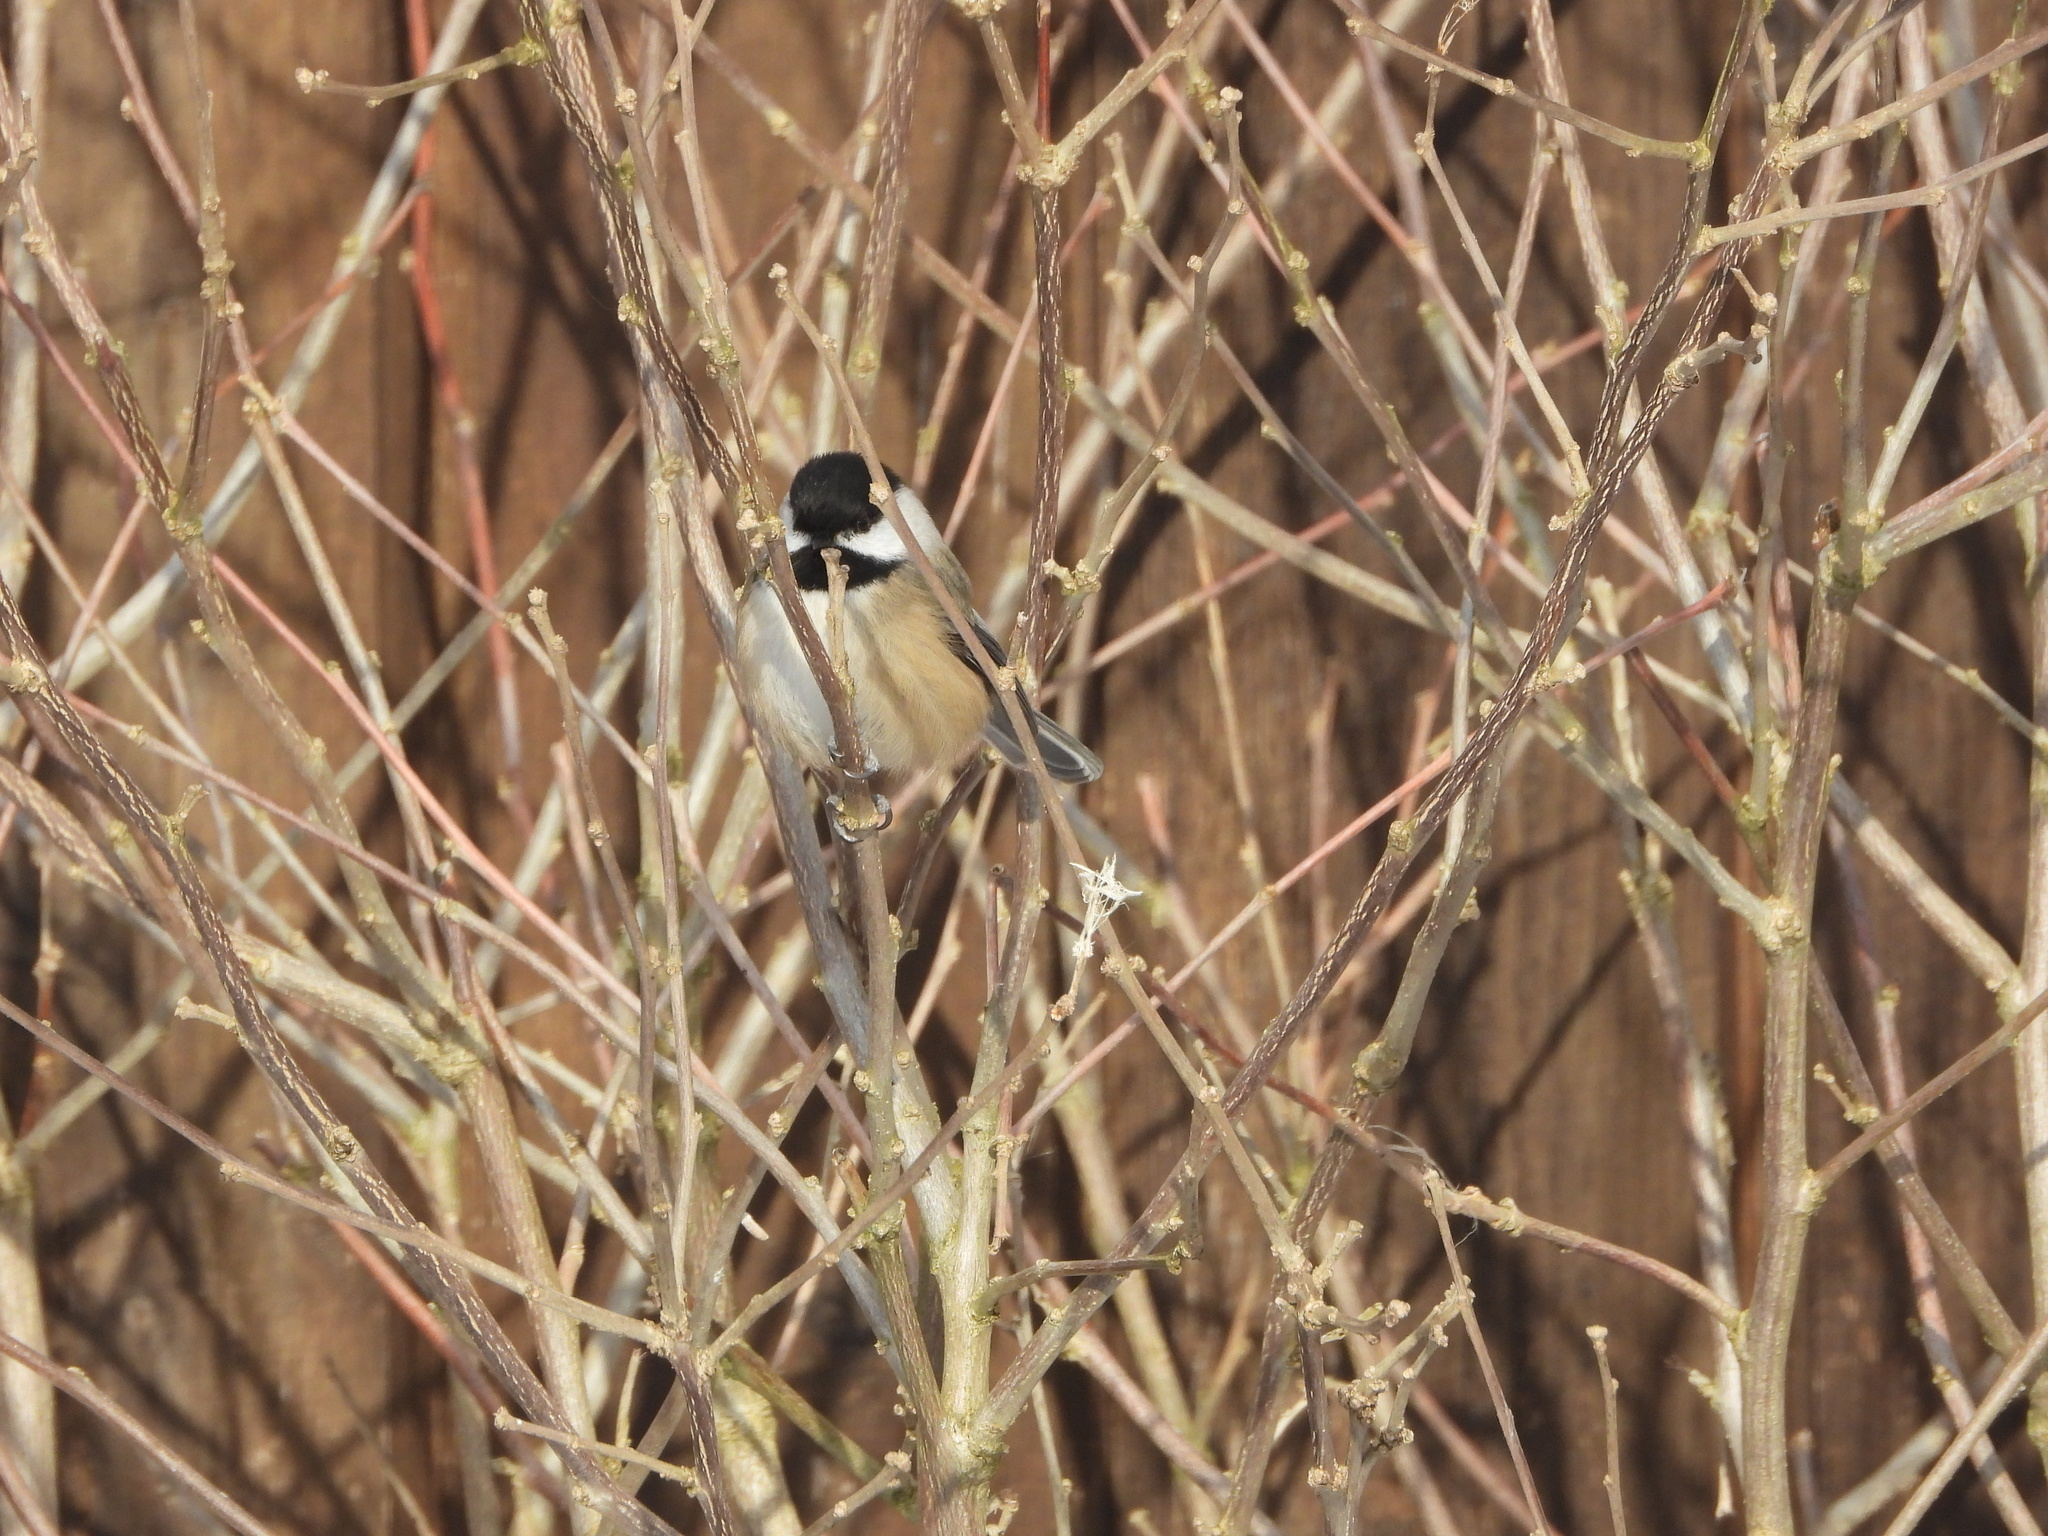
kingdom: Animalia
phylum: Chordata
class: Aves
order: Passeriformes
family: Paridae
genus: Poecile
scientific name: Poecile atricapillus
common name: Black-capped chickadee
